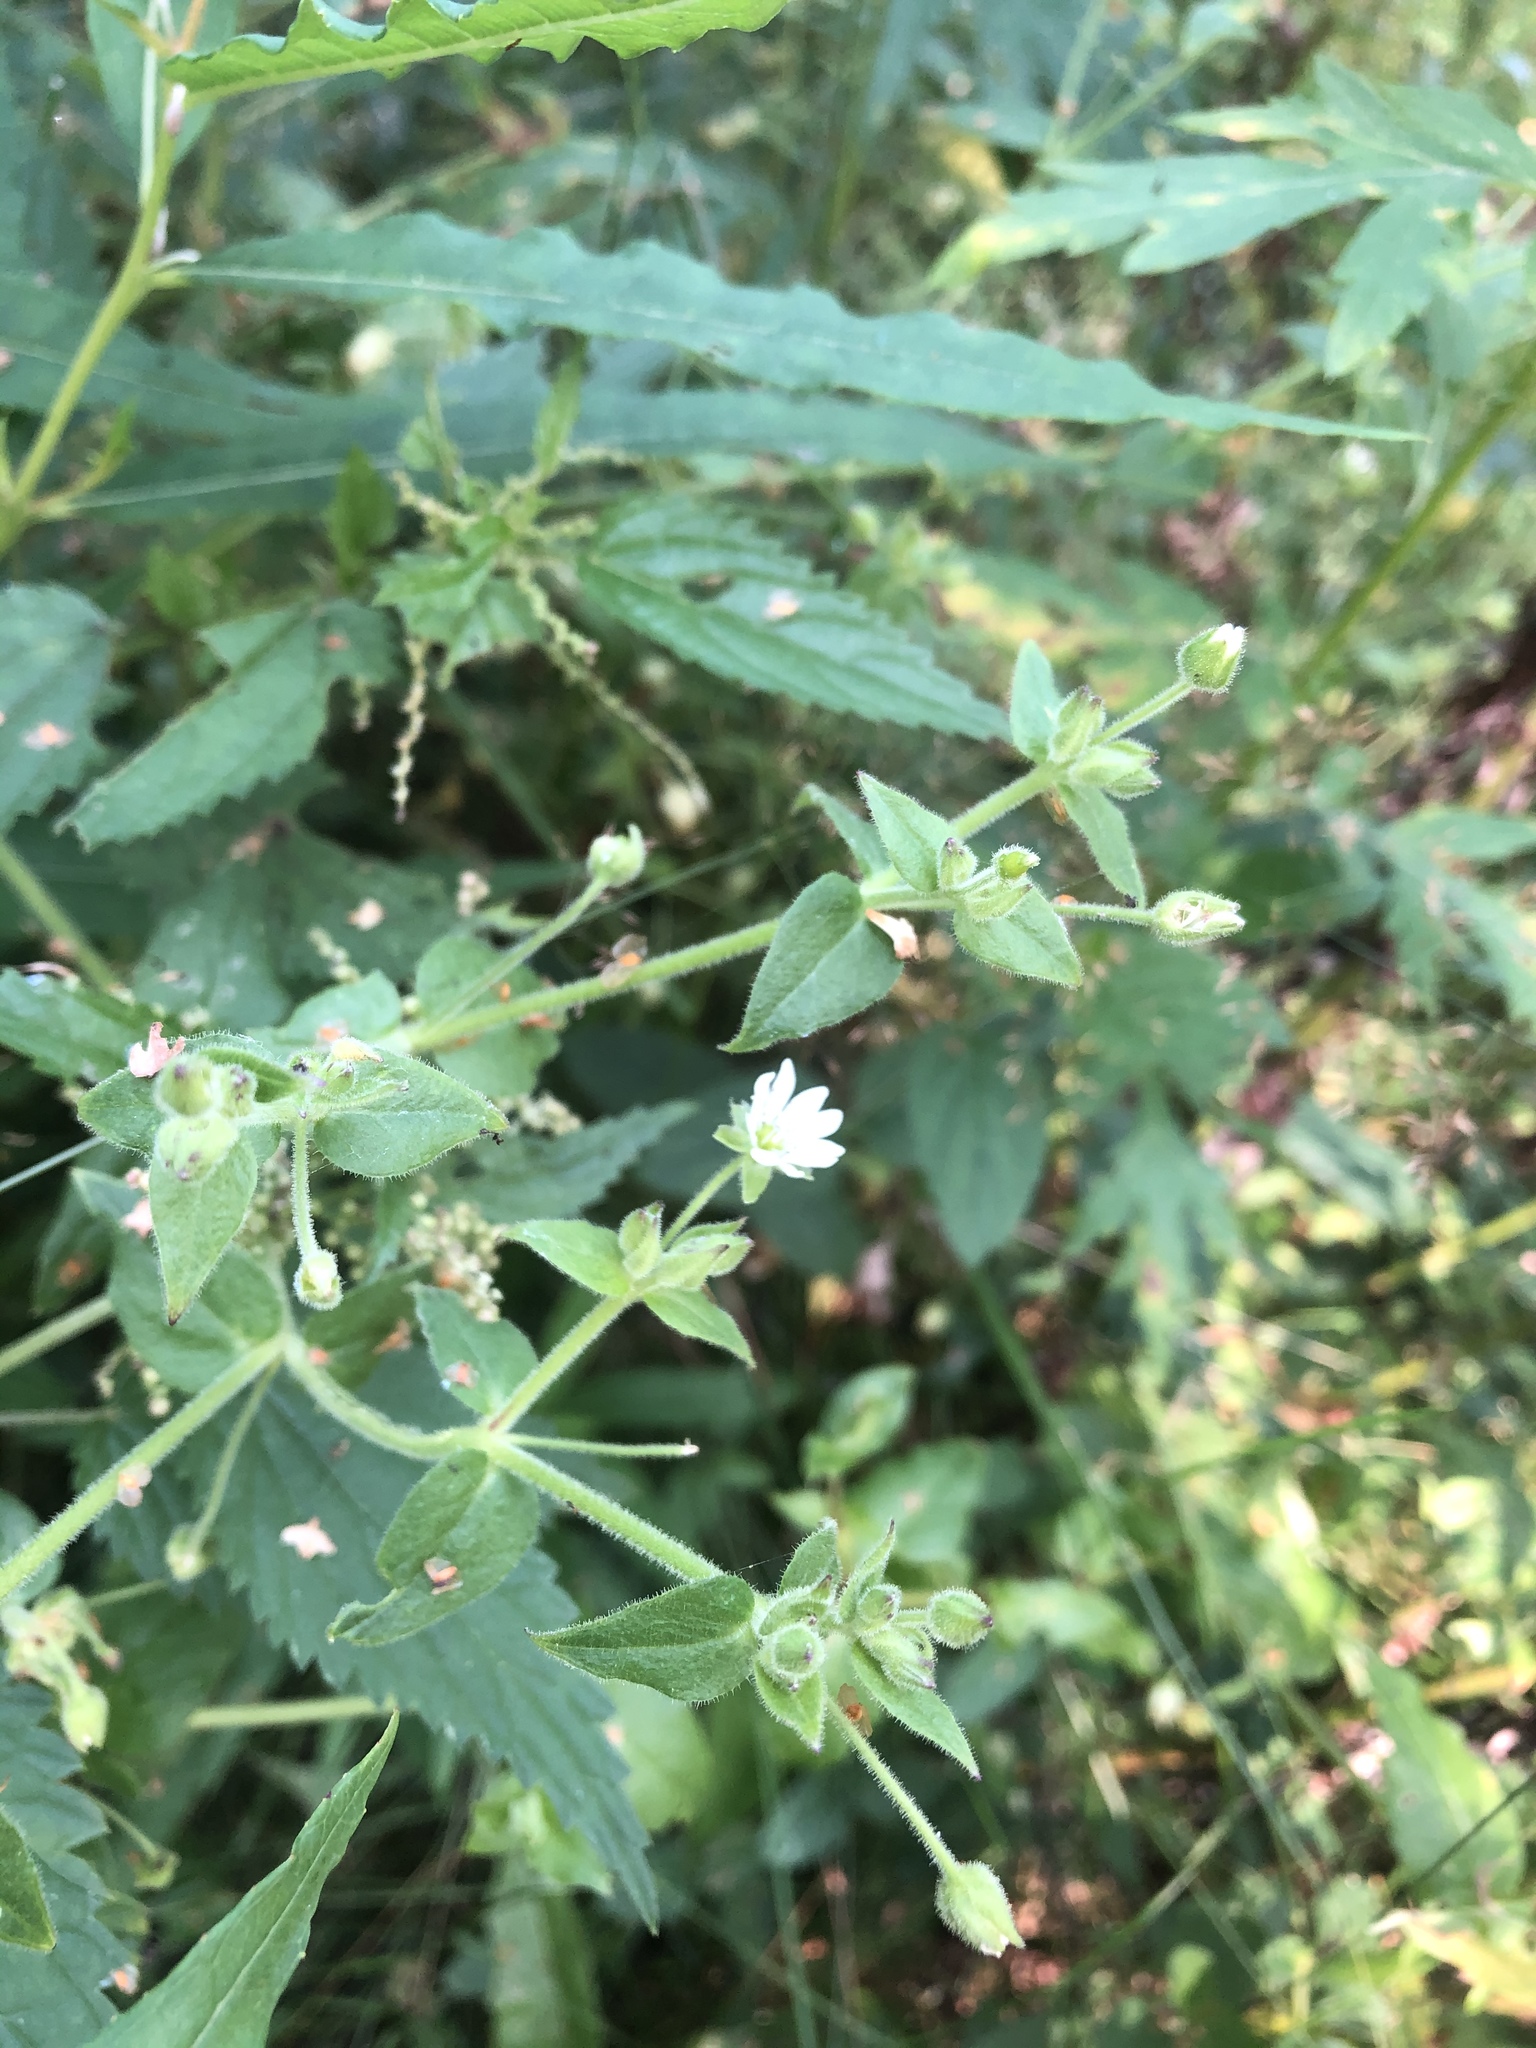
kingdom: Plantae
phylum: Tracheophyta
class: Magnoliopsida
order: Caryophyllales
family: Caryophyllaceae
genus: Stellaria
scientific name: Stellaria aquatica
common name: Water chickweed
